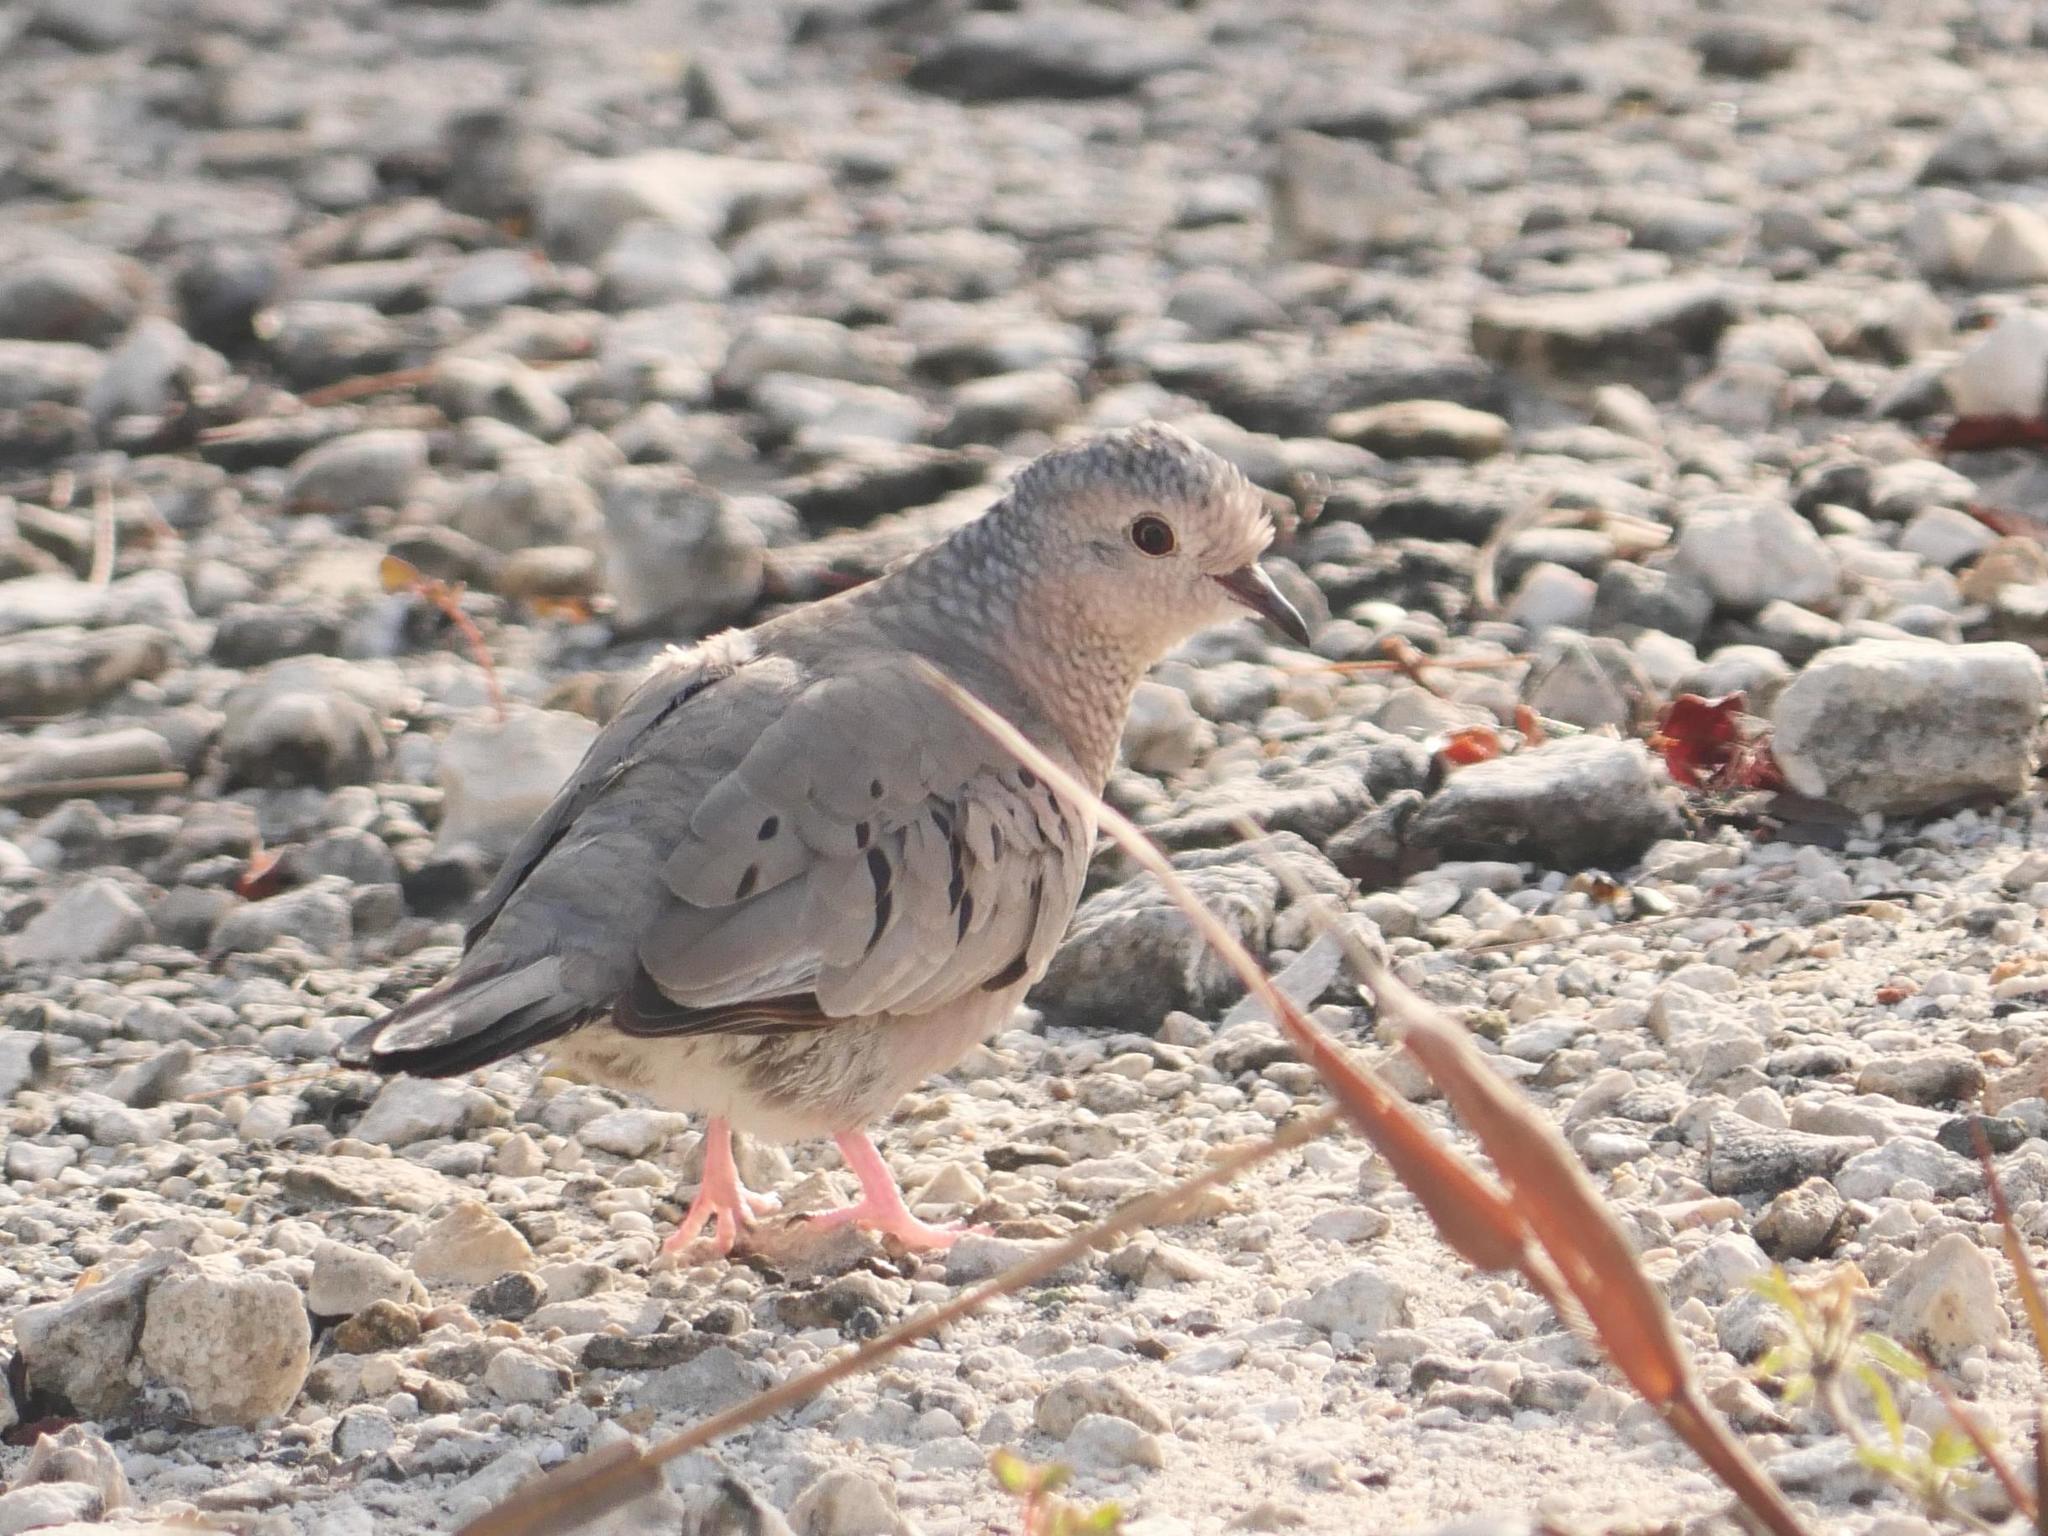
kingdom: Animalia
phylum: Chordata
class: Aves
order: Columbiformes
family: Columbidae
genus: Columbina
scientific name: Columbina passerina
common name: Common ground-dove
